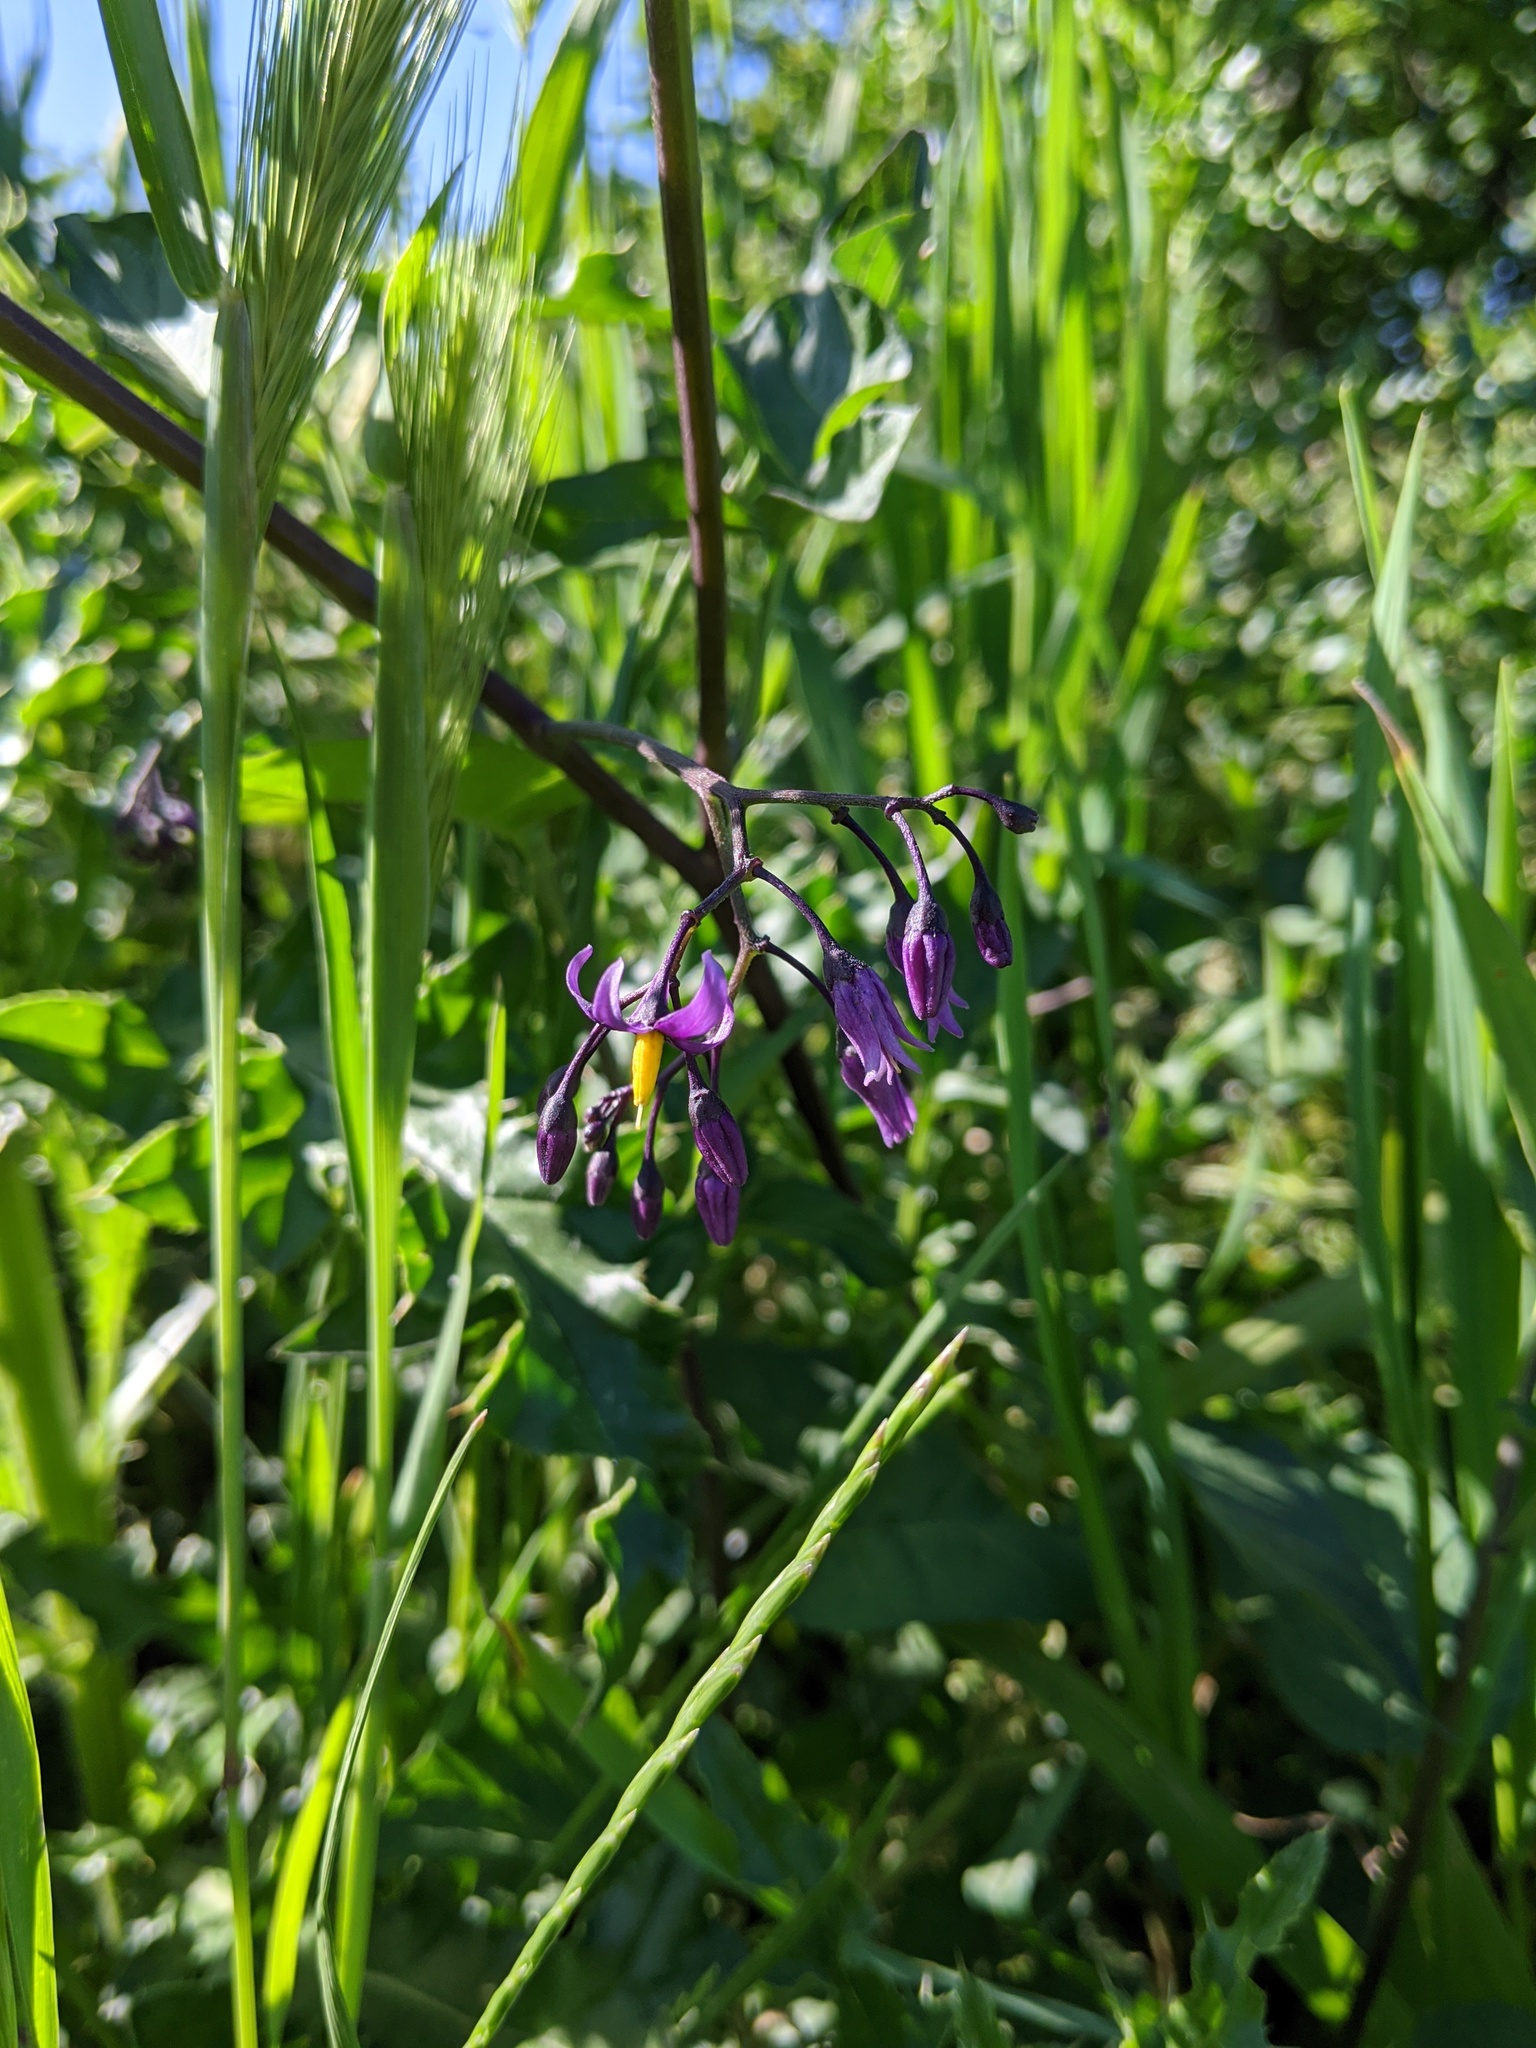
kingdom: Plantae
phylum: Tracheophyta
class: Magnoliopsida
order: Solanales
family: Solanaceae
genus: Solanum
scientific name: Solanum dulcamara
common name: Climbing nightshade
